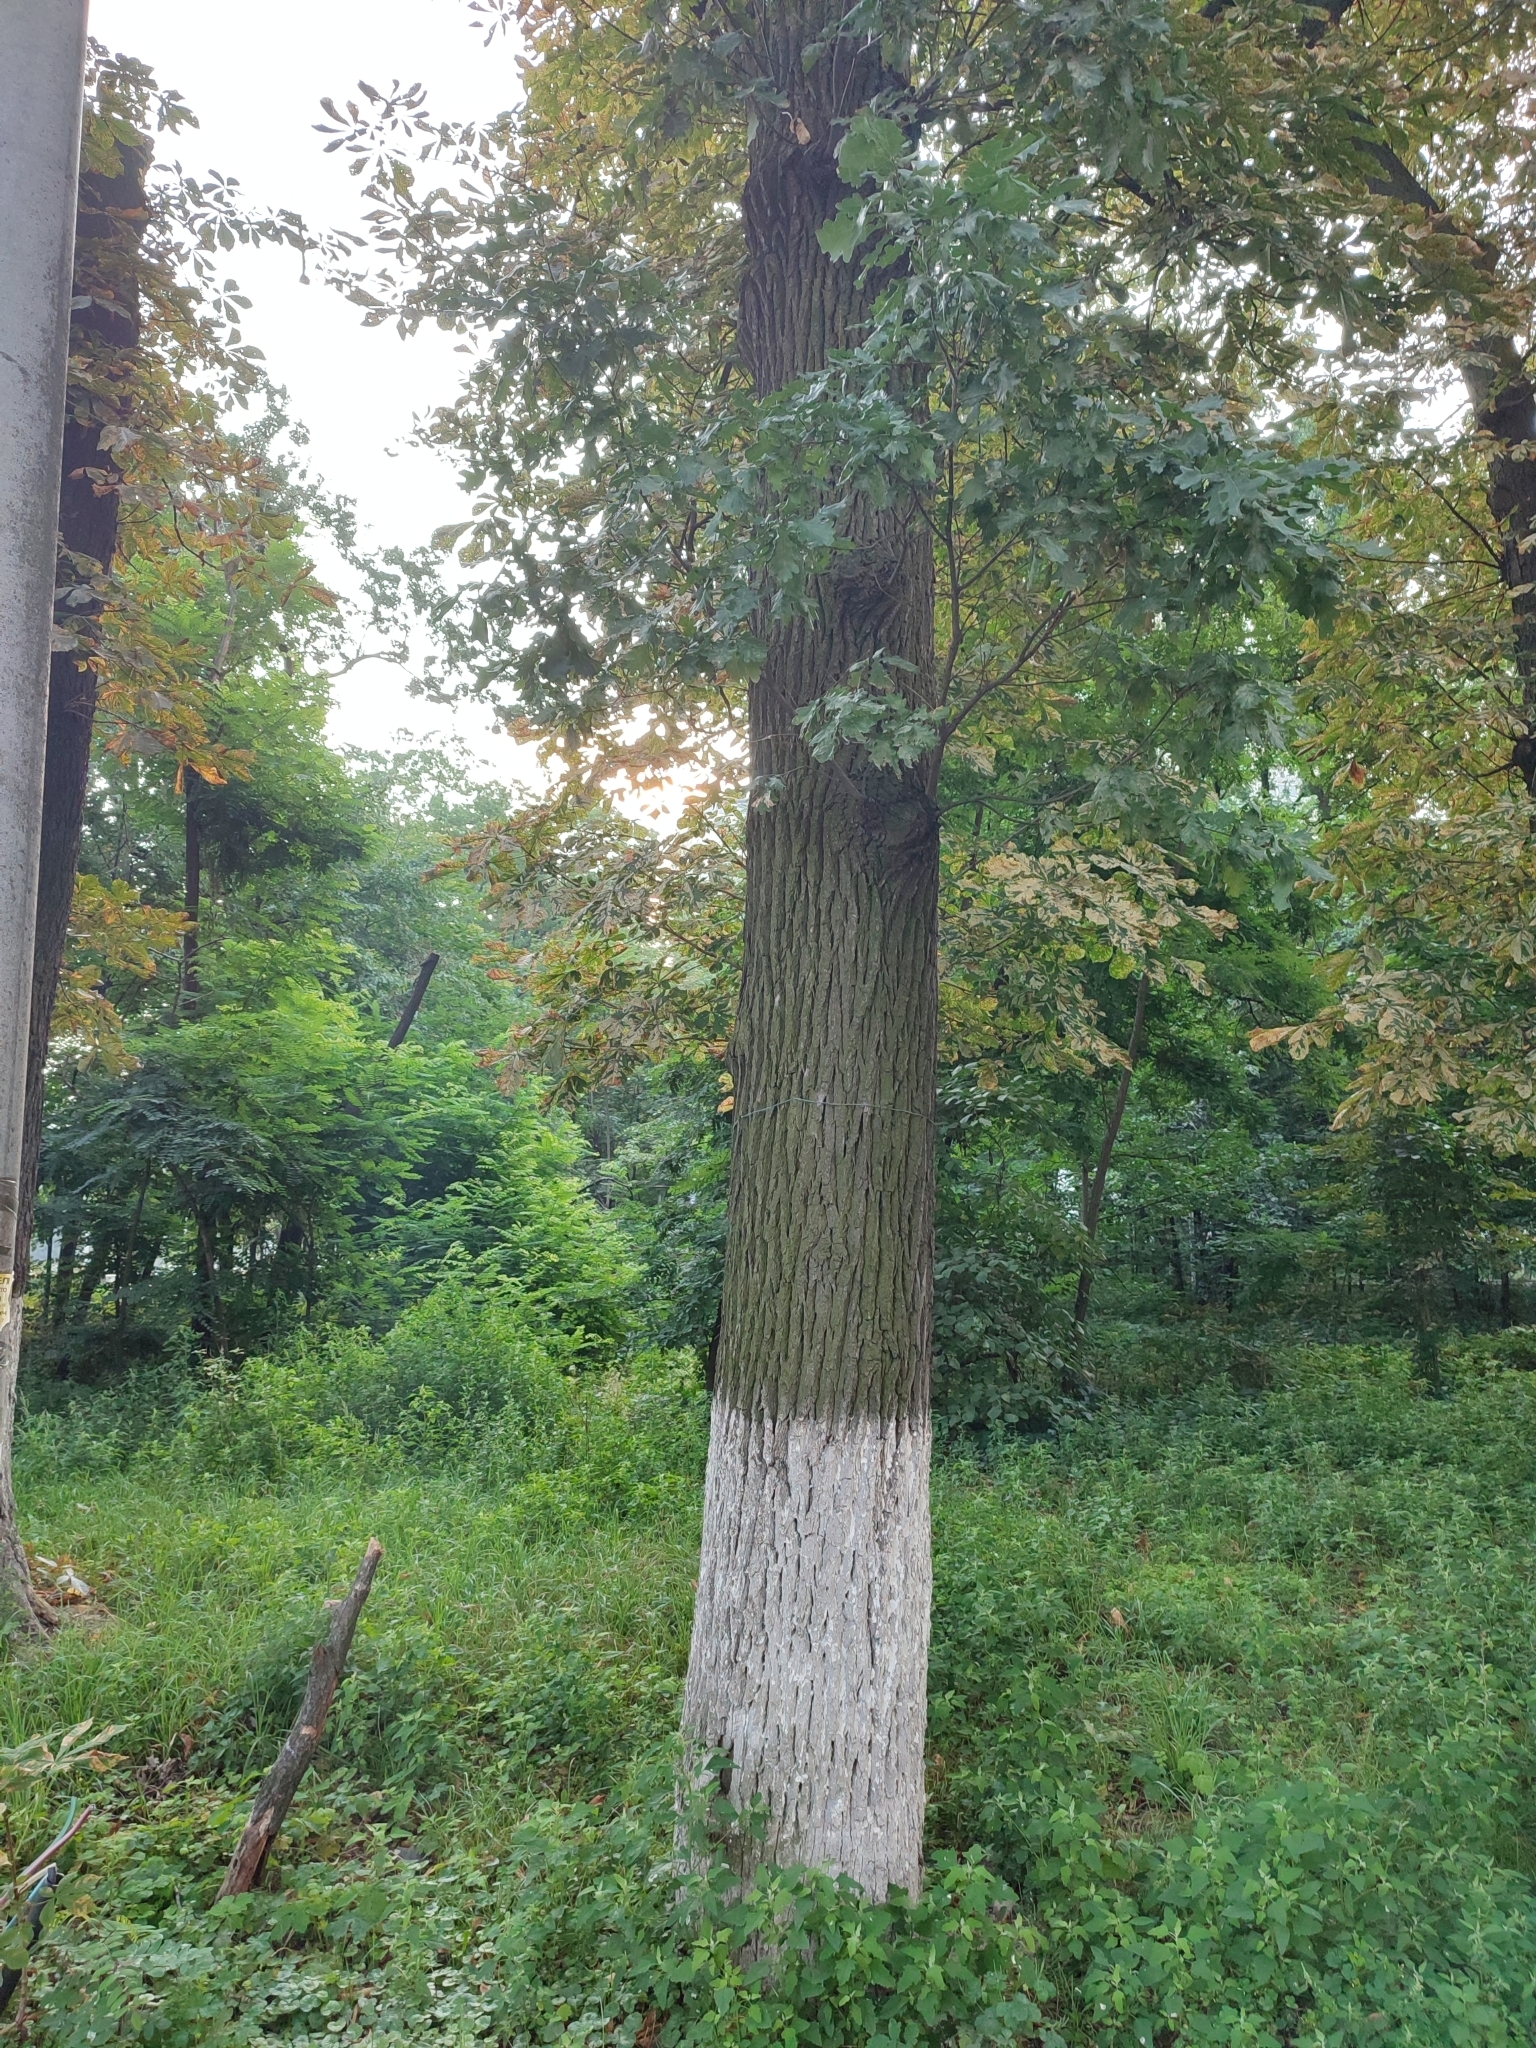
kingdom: Plantae
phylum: Tracheophyta
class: Magnoliopsida
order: Fagales
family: Fagaceae
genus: Quercus
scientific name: Quercus robur
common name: Pedunculate oak
